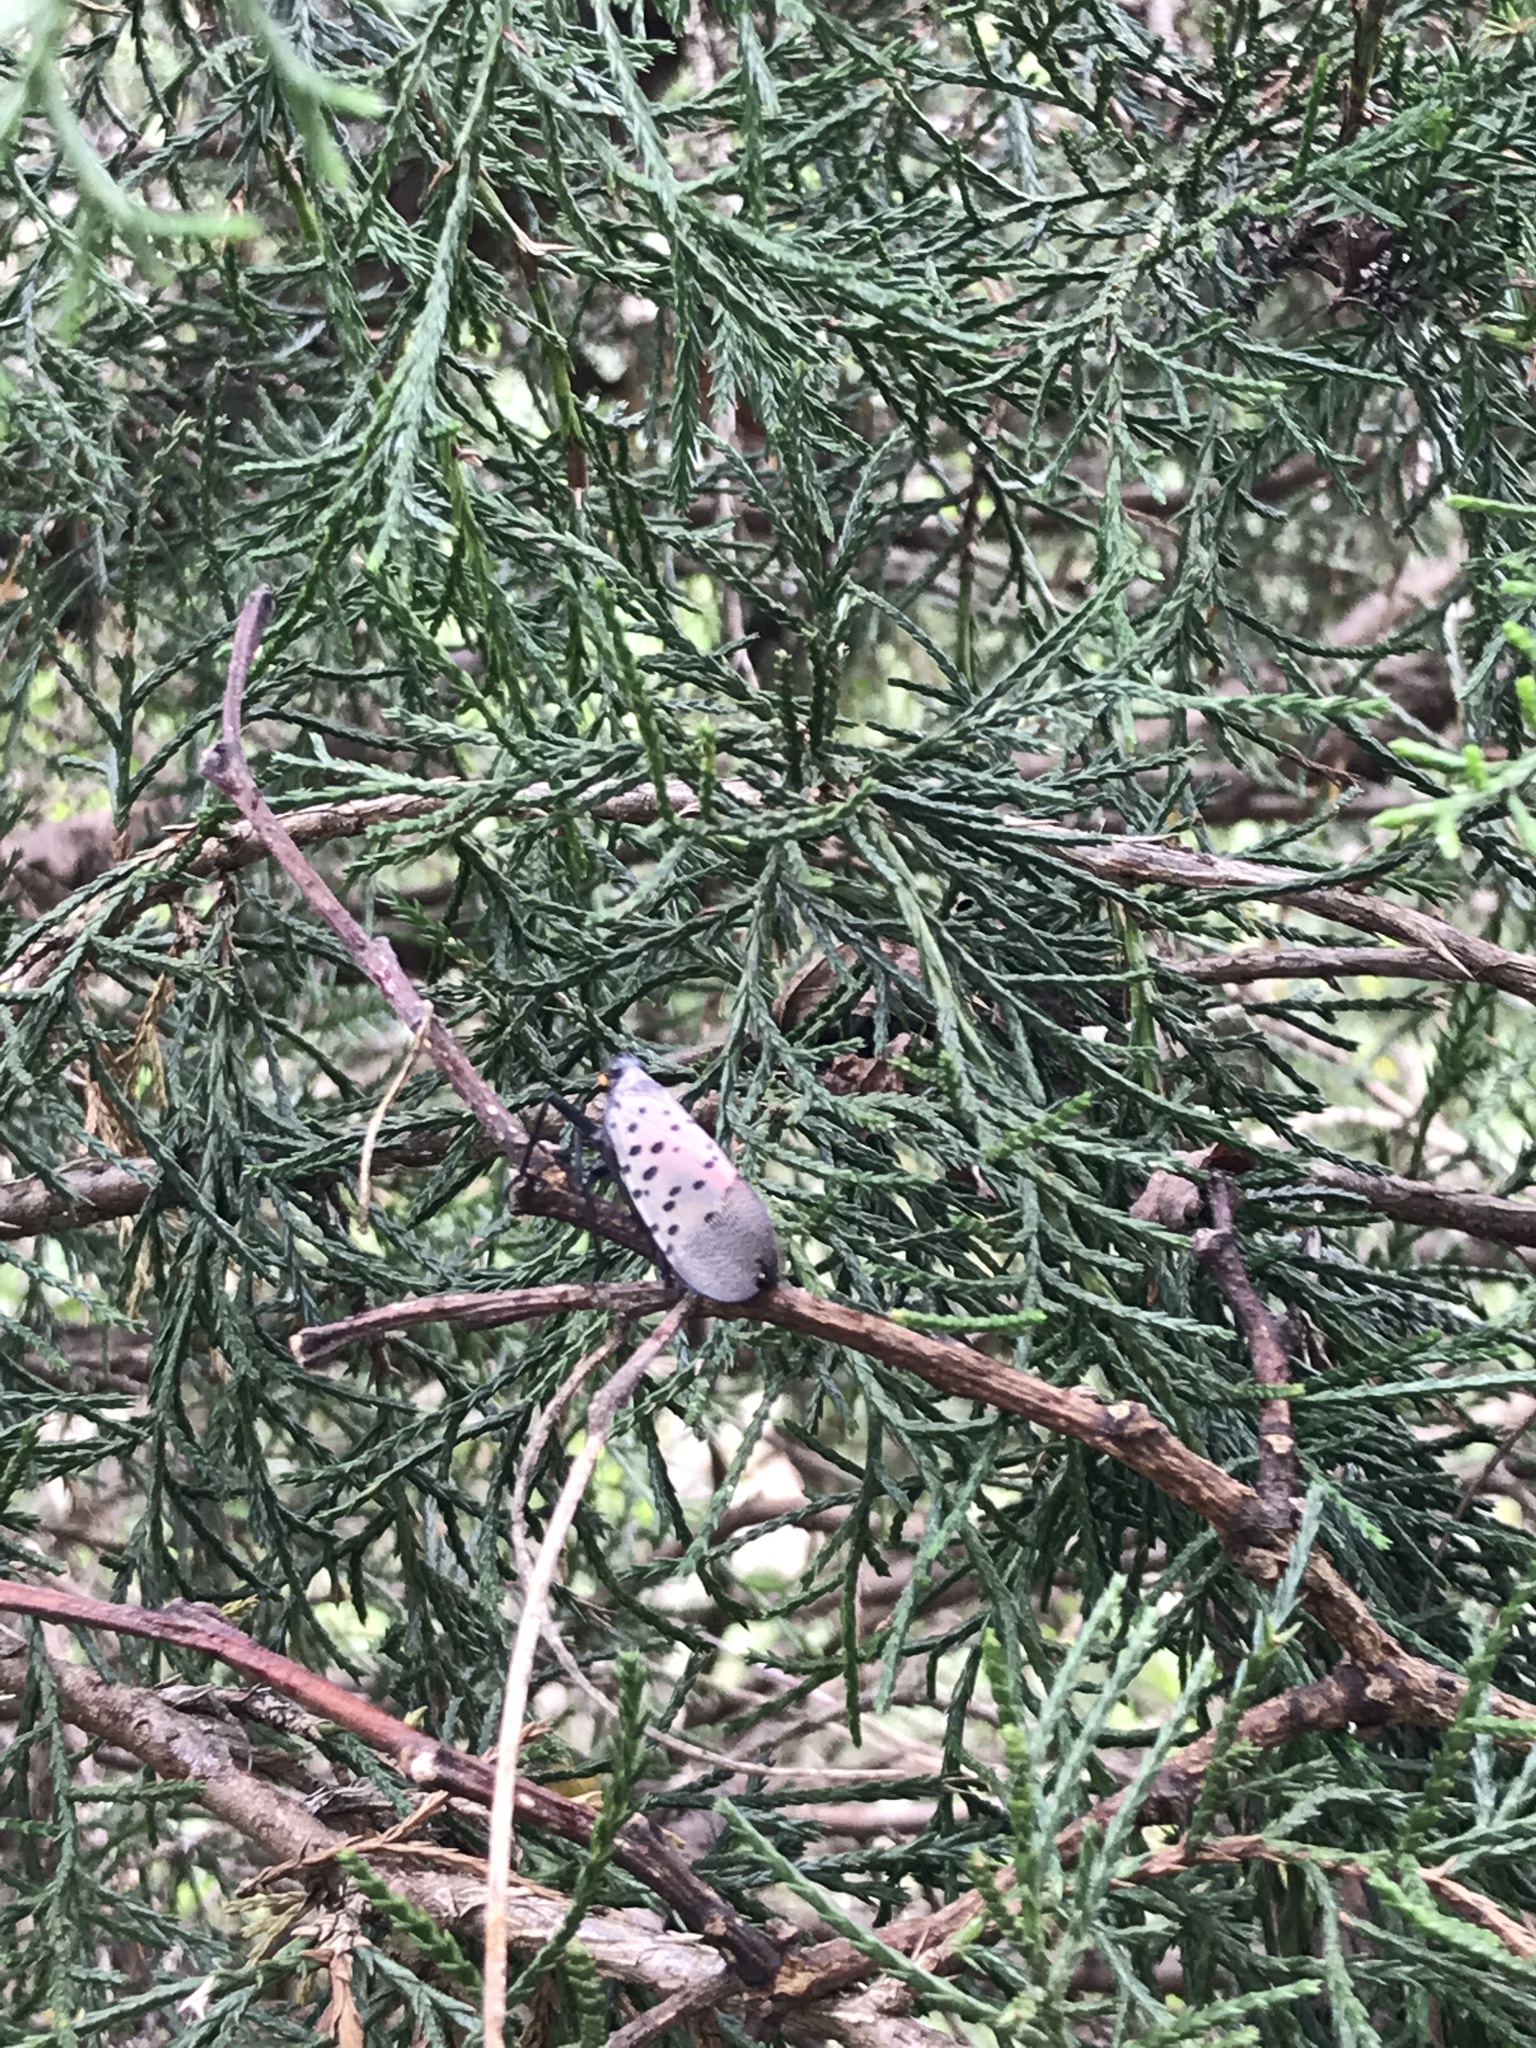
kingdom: Animalia
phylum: Arthropoda
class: Insecta
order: Hemiptera
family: Fulgoridae
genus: Lycorma
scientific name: Lycorma delicatula
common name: Spotted lanternfly
